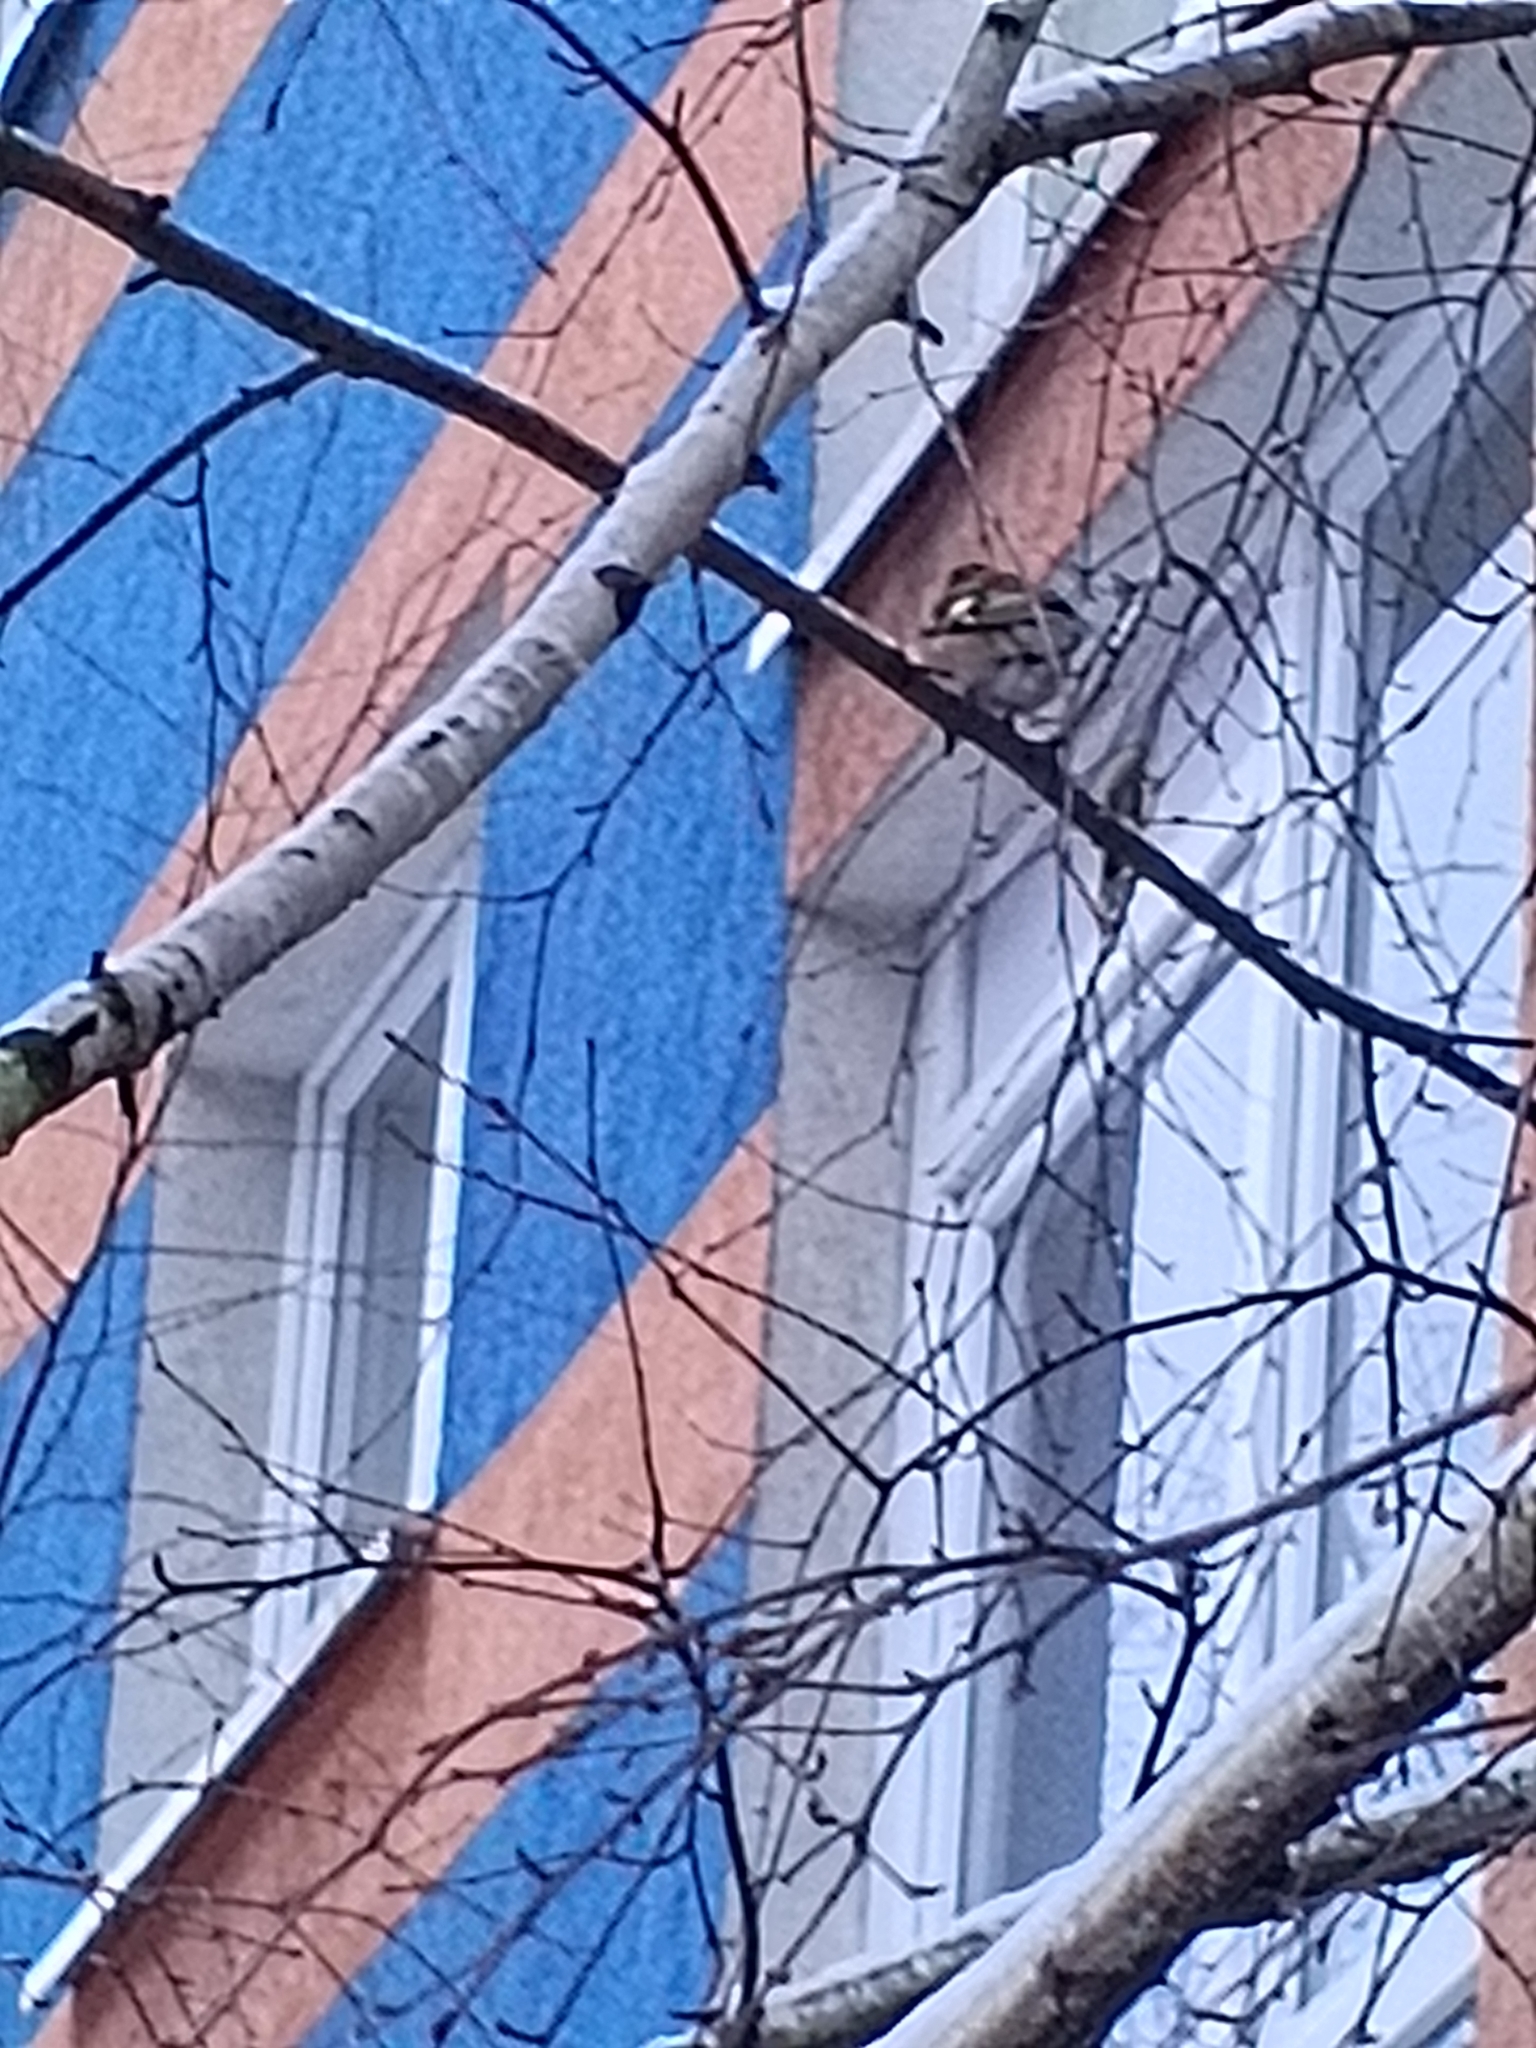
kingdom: Animalia
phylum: Chordata
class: Aves
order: Passeriformes
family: Fringillidae
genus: Fringilla
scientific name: Fringilla coelebs
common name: Common chaffinch
